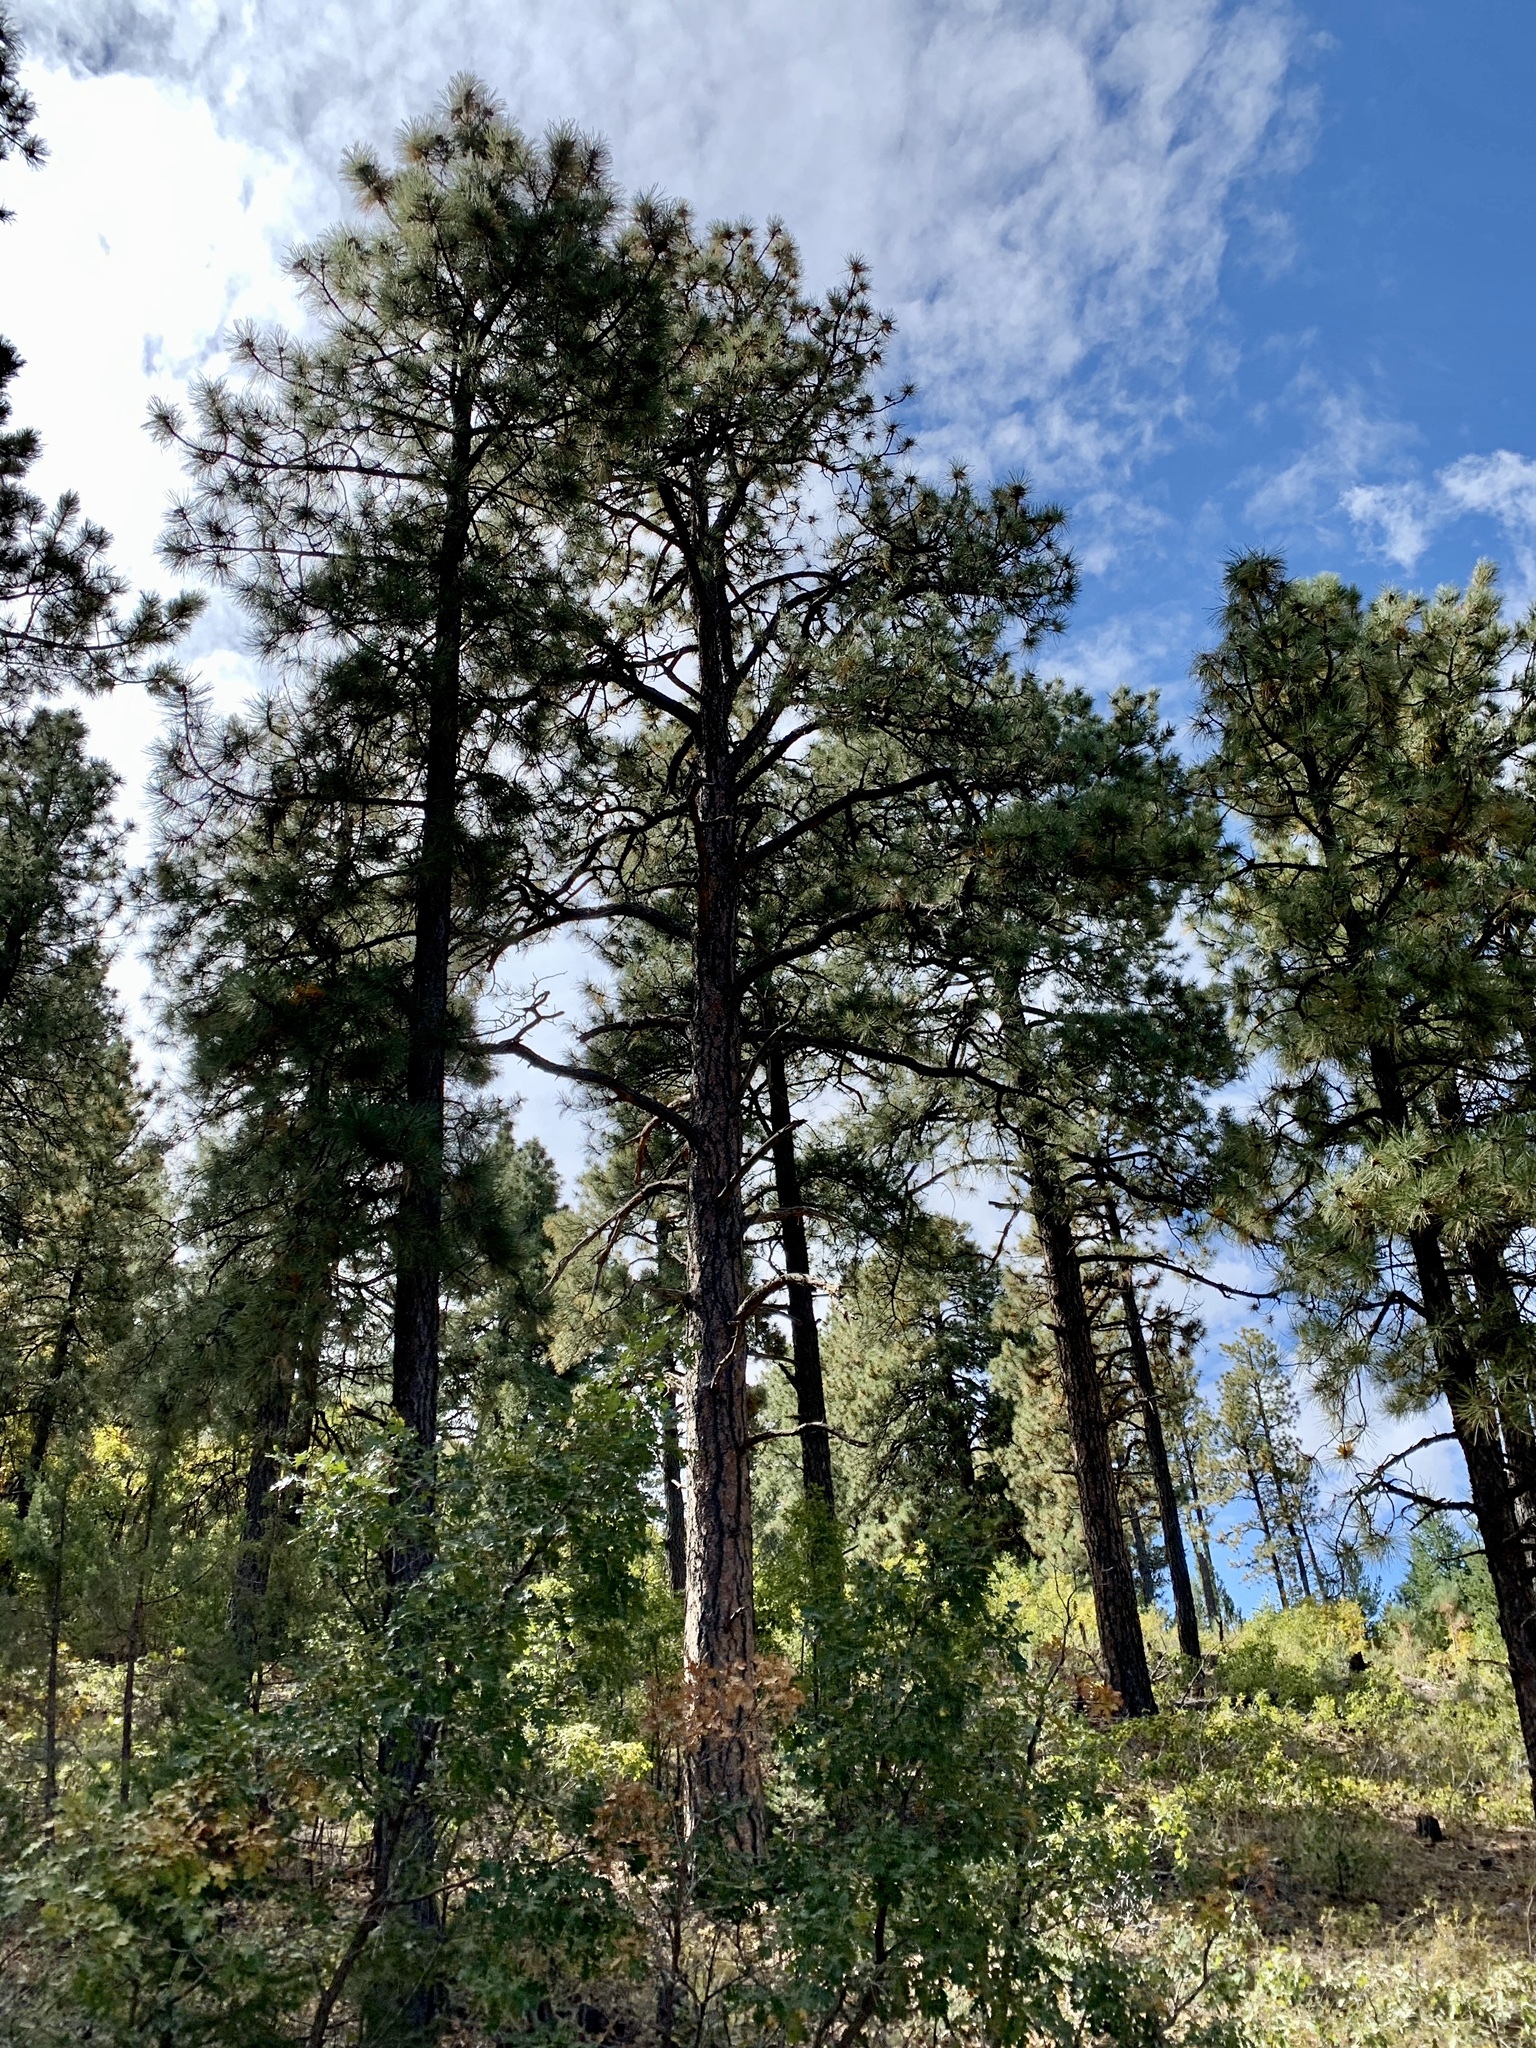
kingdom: Plantae
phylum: Tracheophyta
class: Pinopsida
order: Pinales
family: Pinaceae
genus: Pinus
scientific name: Pinus ponderosa
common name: Western yellow-pine
